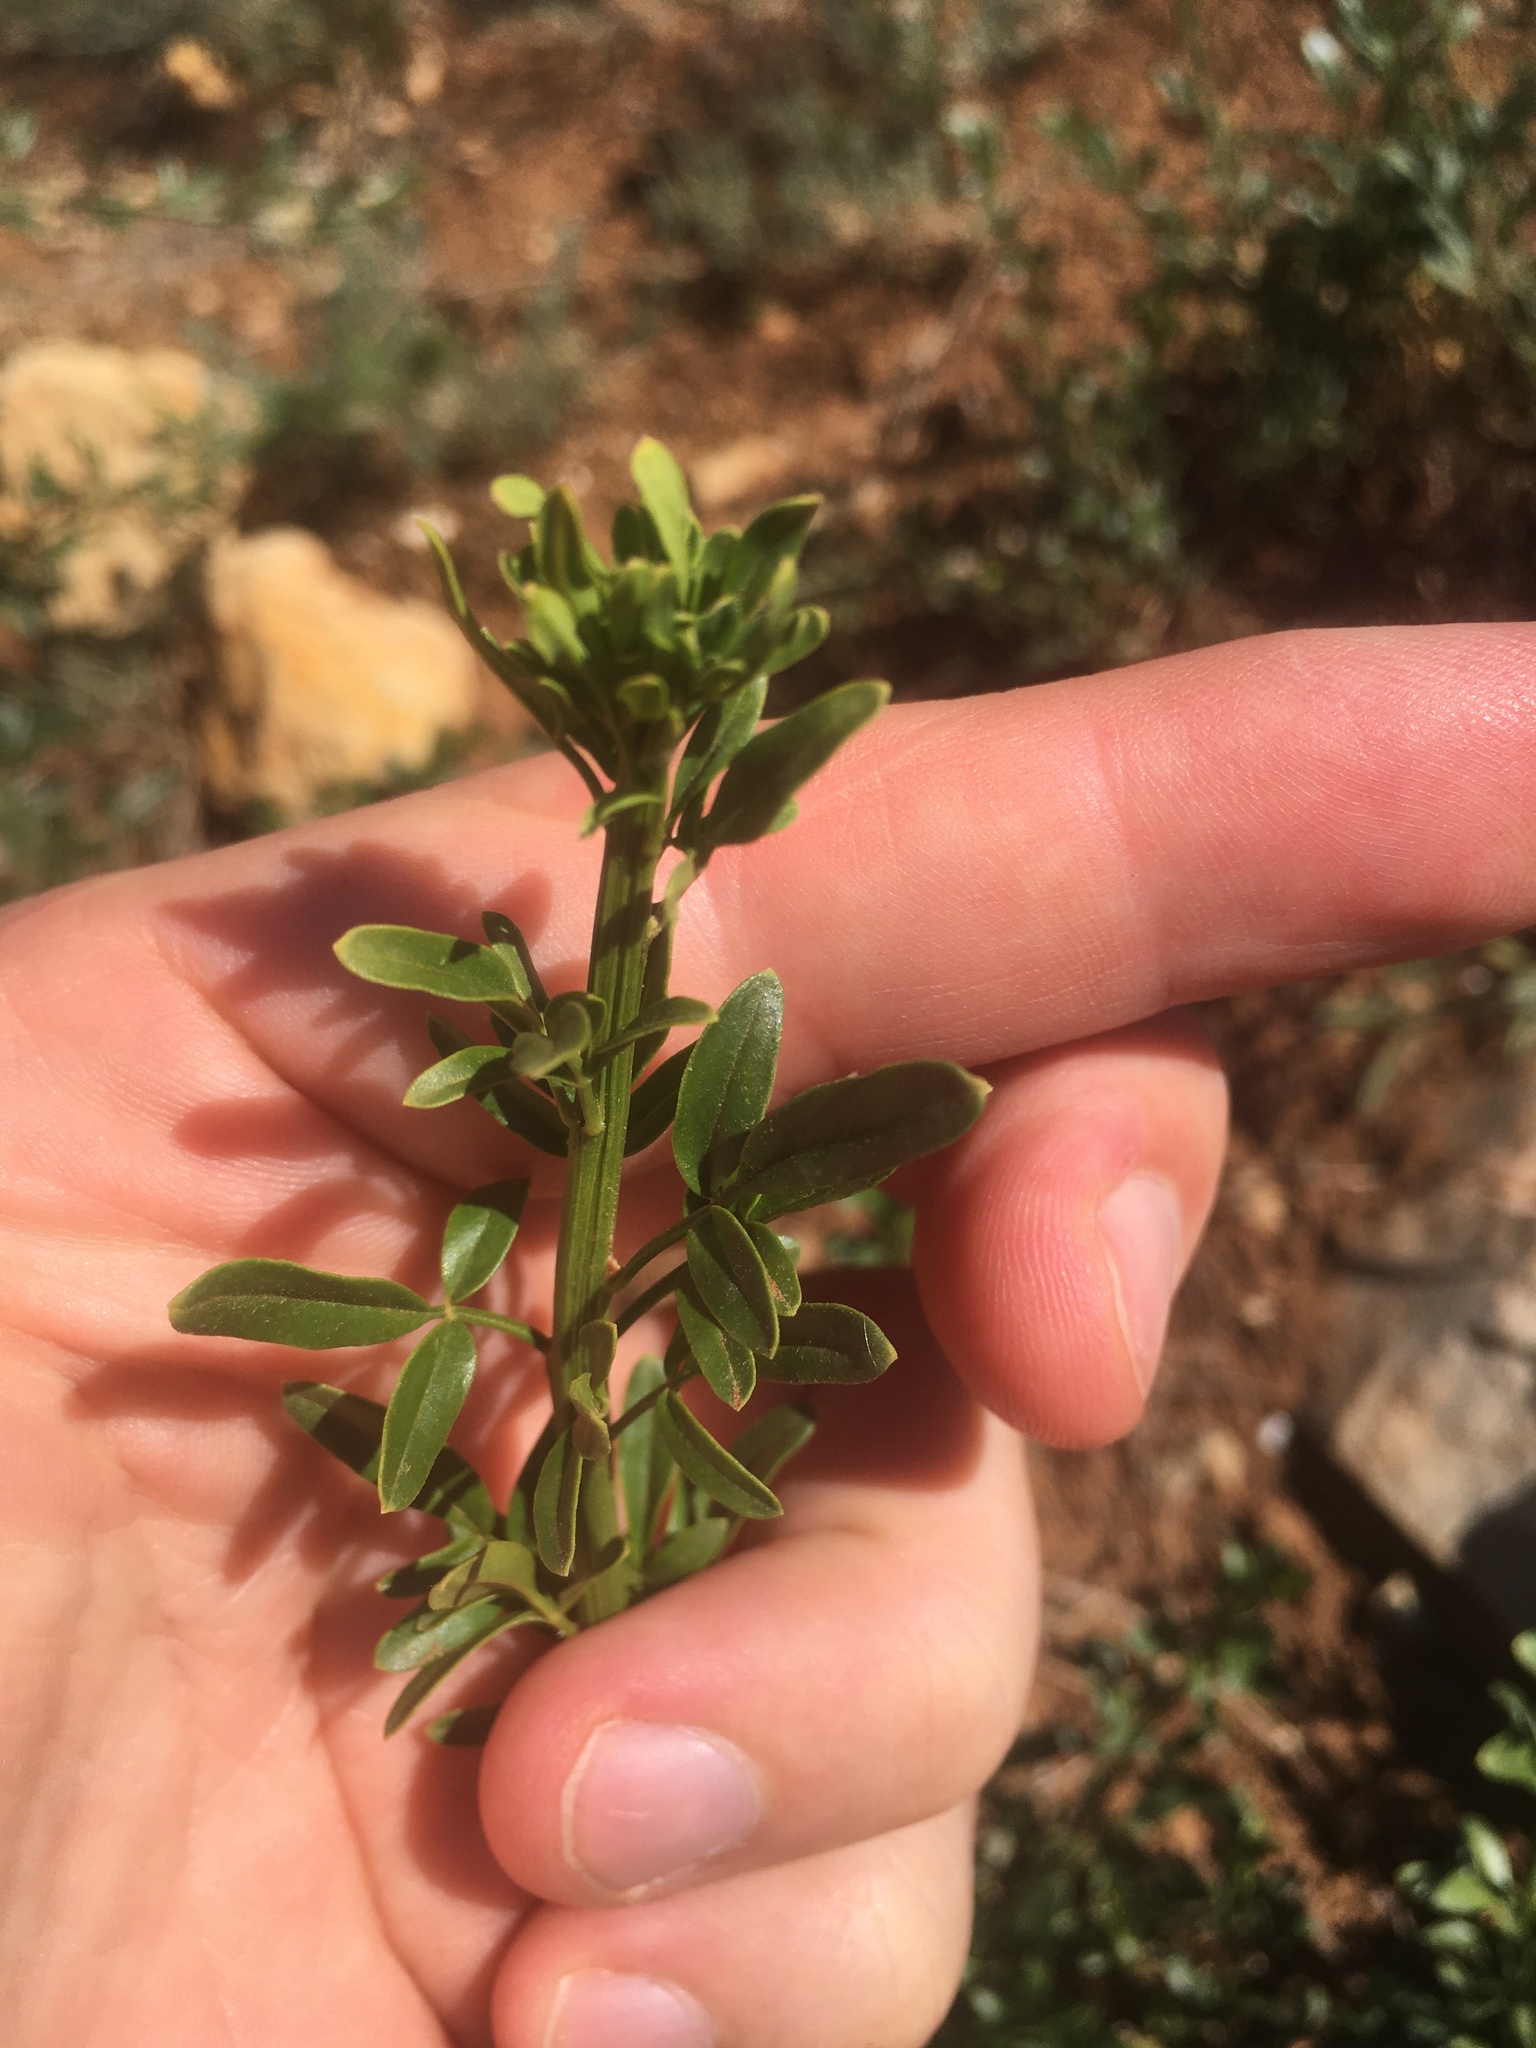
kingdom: Plantae
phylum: Tracheophyta
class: Magnoliopsida
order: Lamiales
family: Oleaceae
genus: Chrysojasminum
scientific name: Chrysojasminum fruticans
